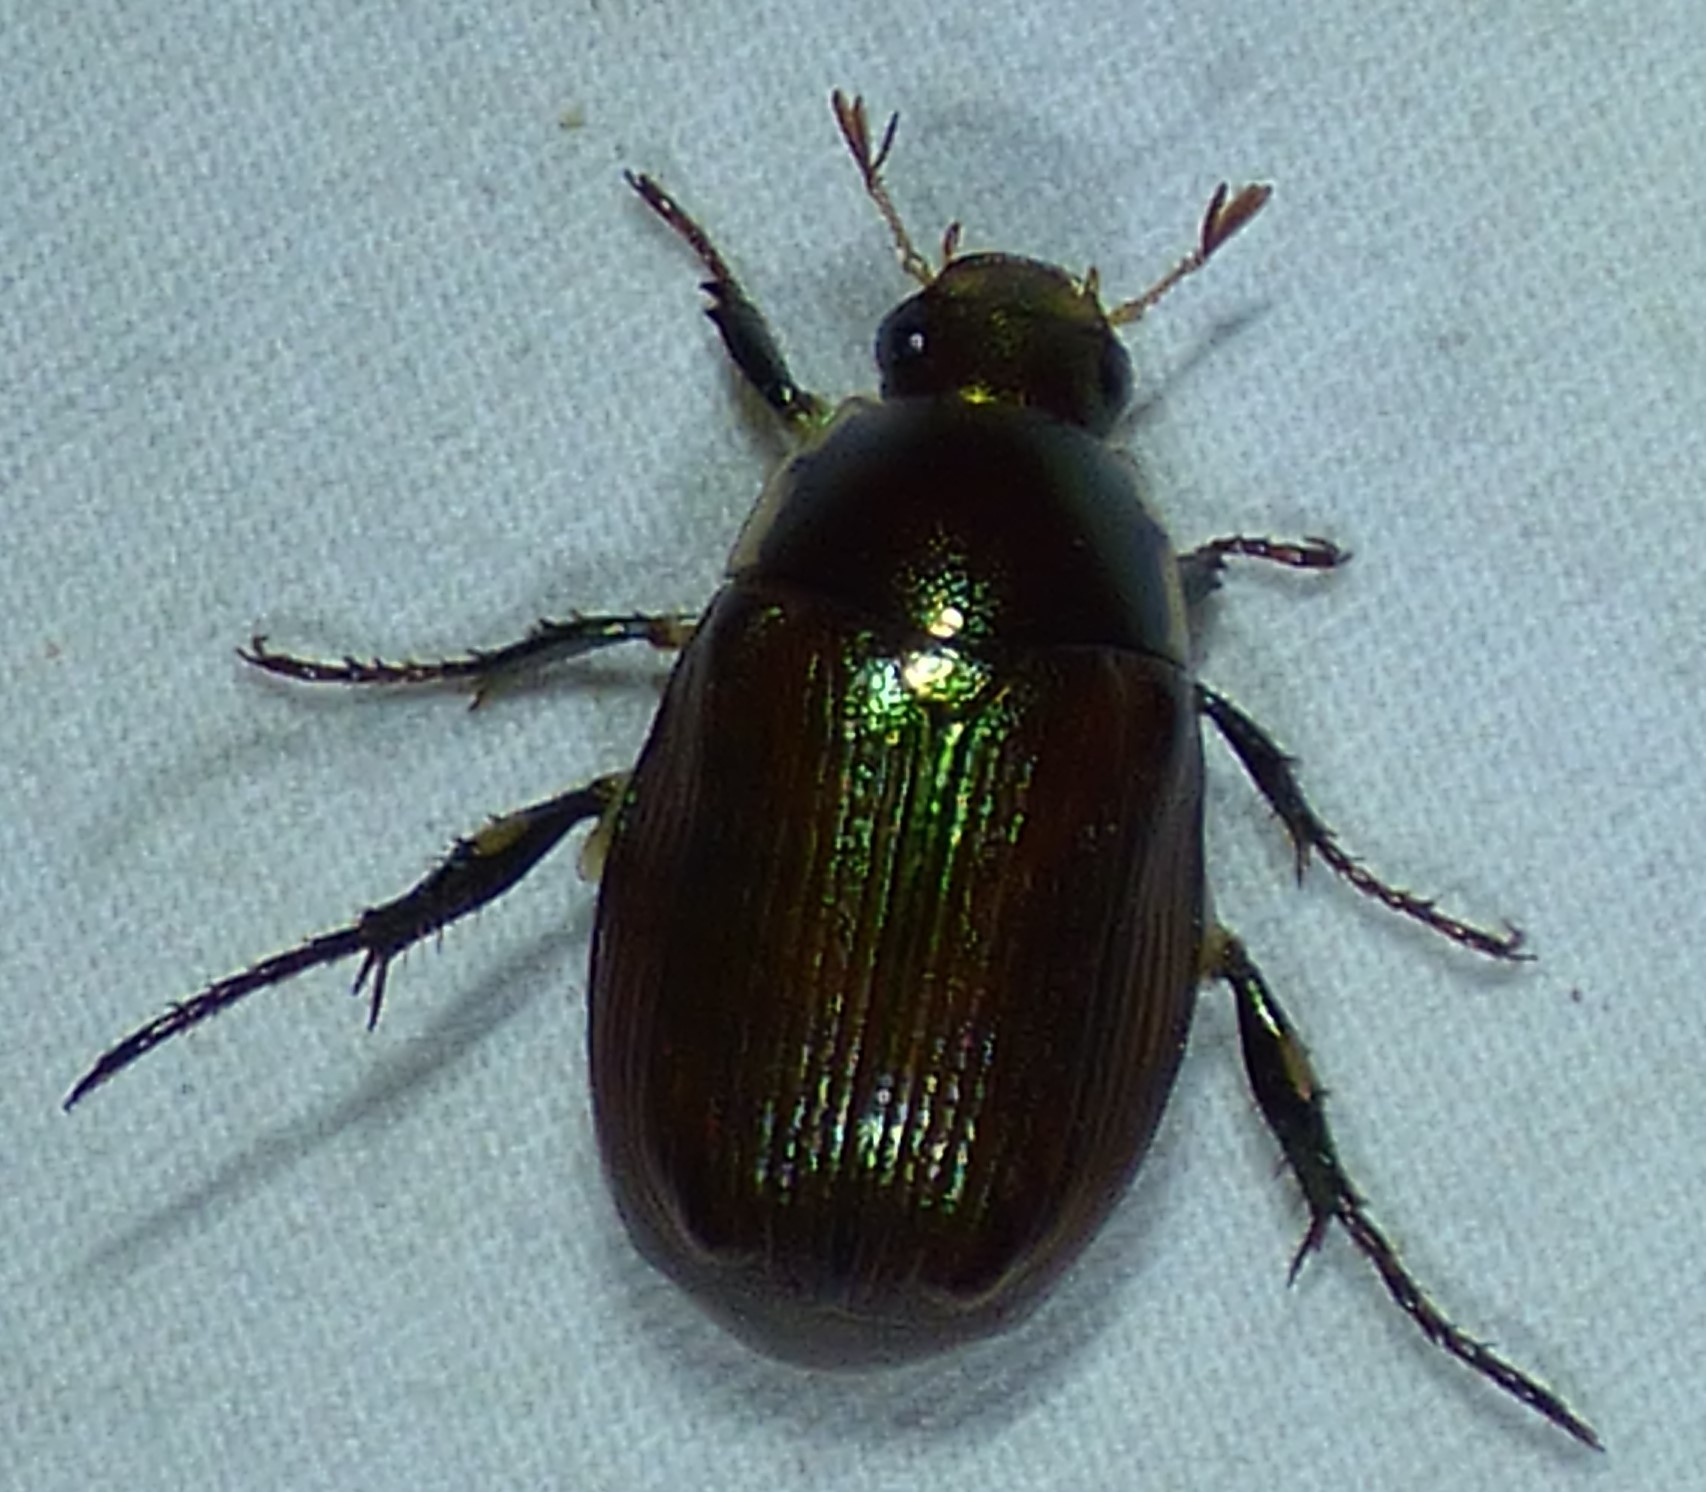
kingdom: Animalia
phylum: Arthropoda
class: Insecta
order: Coleoptera
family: Scarabaeidae
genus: Callistethus
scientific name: Callistethus marginatus
